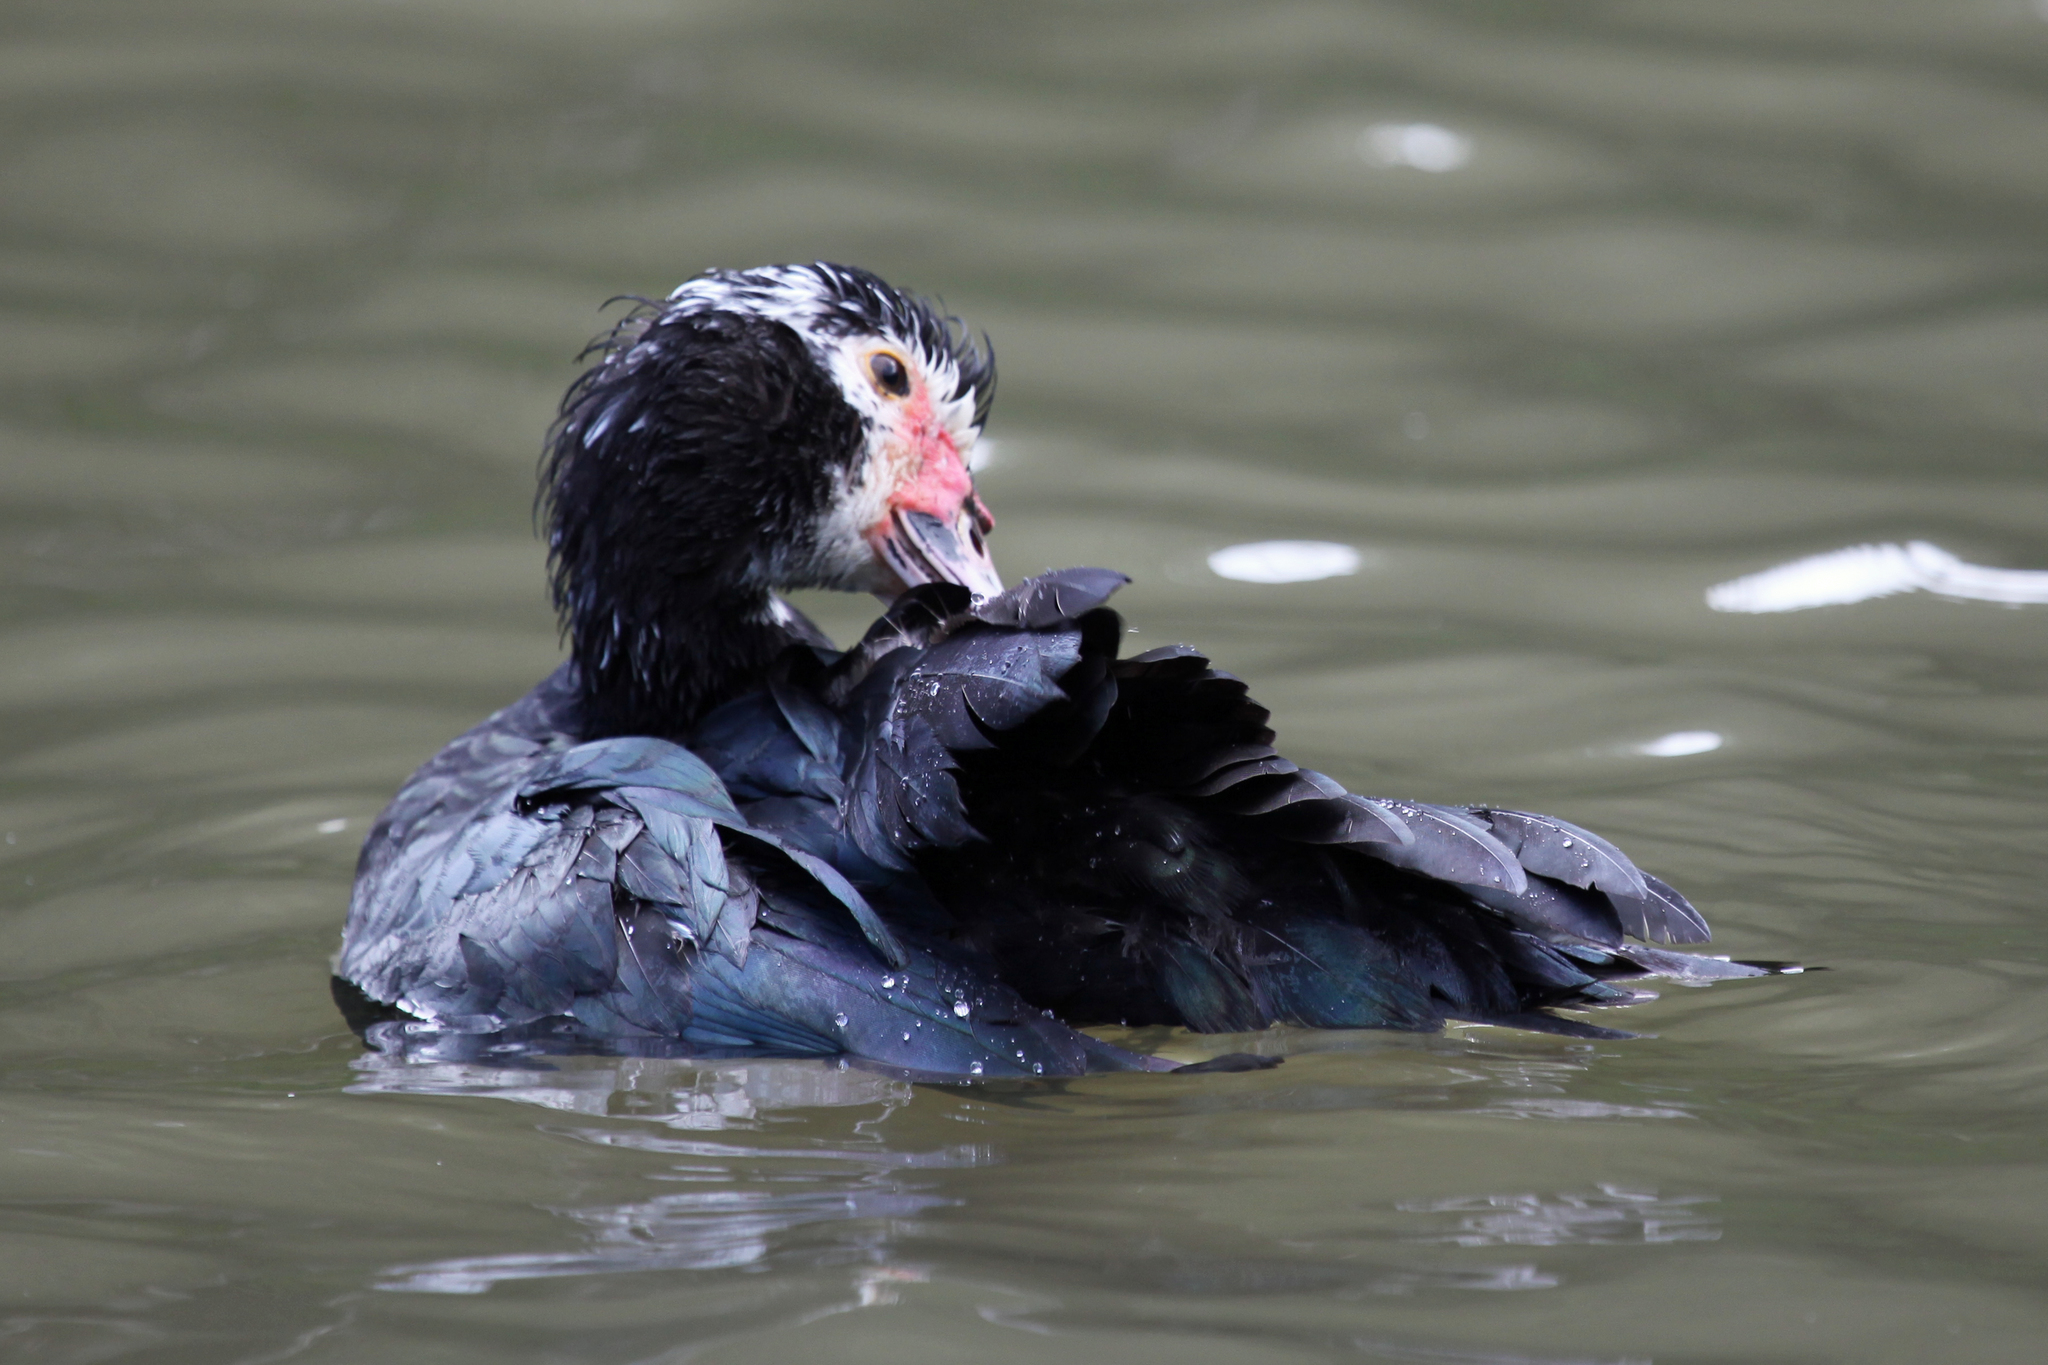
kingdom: Animalia
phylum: Chordata
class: Aves
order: Anseriformes
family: Anatidae
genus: Cairina
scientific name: Cairina moschata
